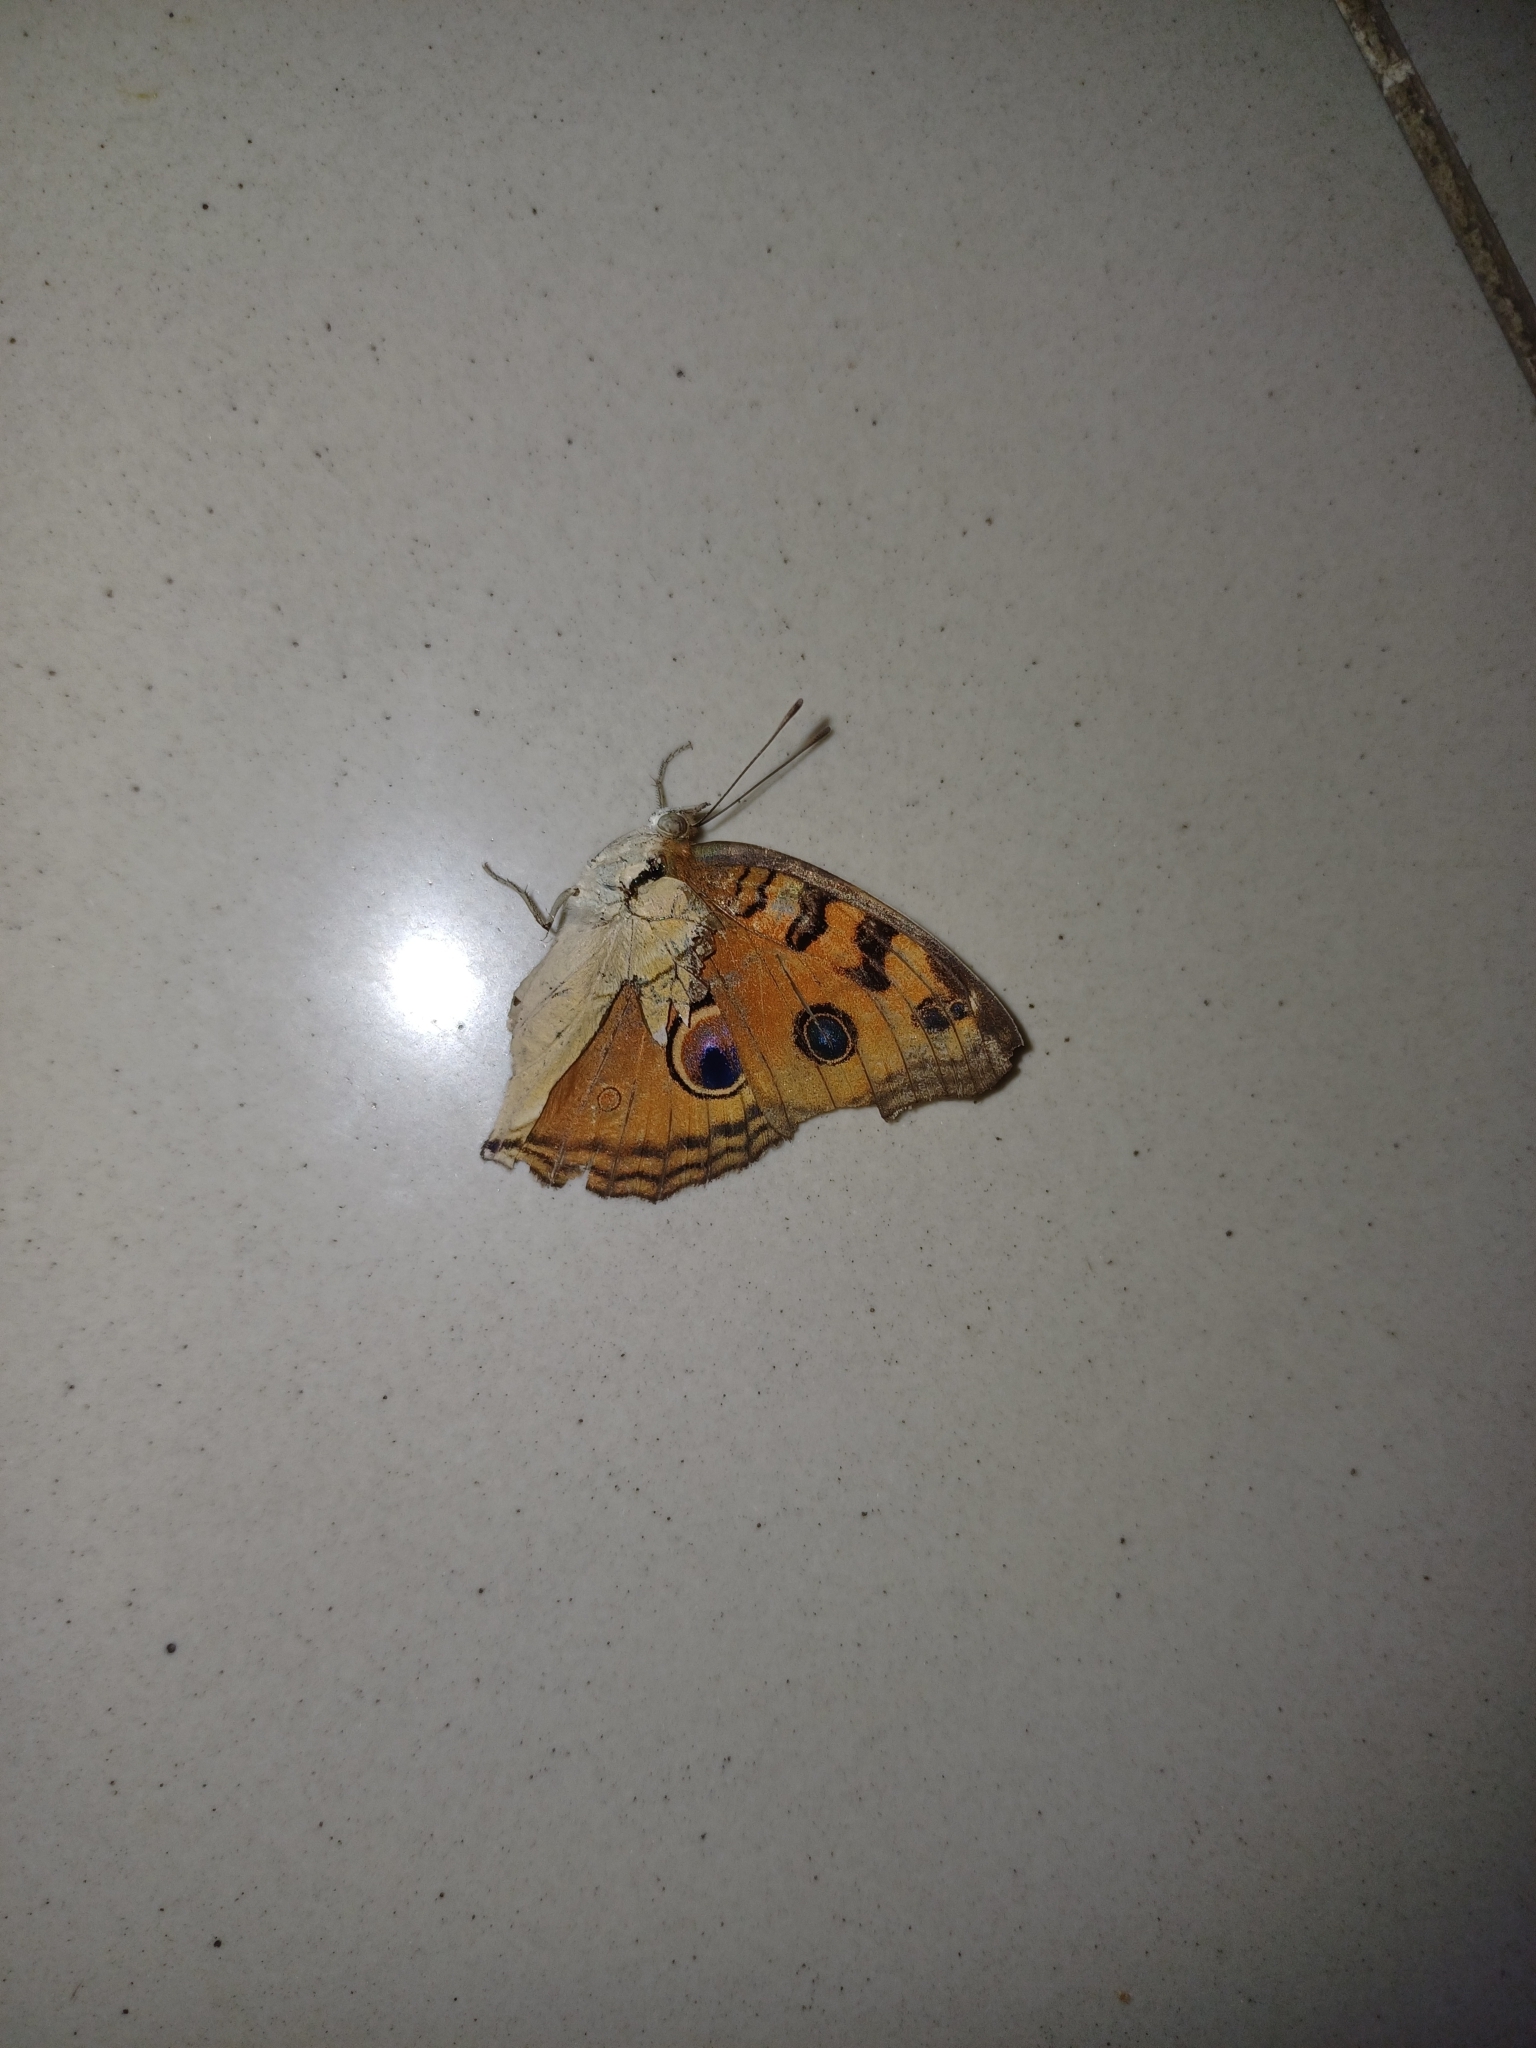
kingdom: Animalia
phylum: Arthropoda
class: Insecta
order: Lepidoptera
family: Nymphalidae
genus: Junonia
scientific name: Junonia almana
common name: Peacock pansy
